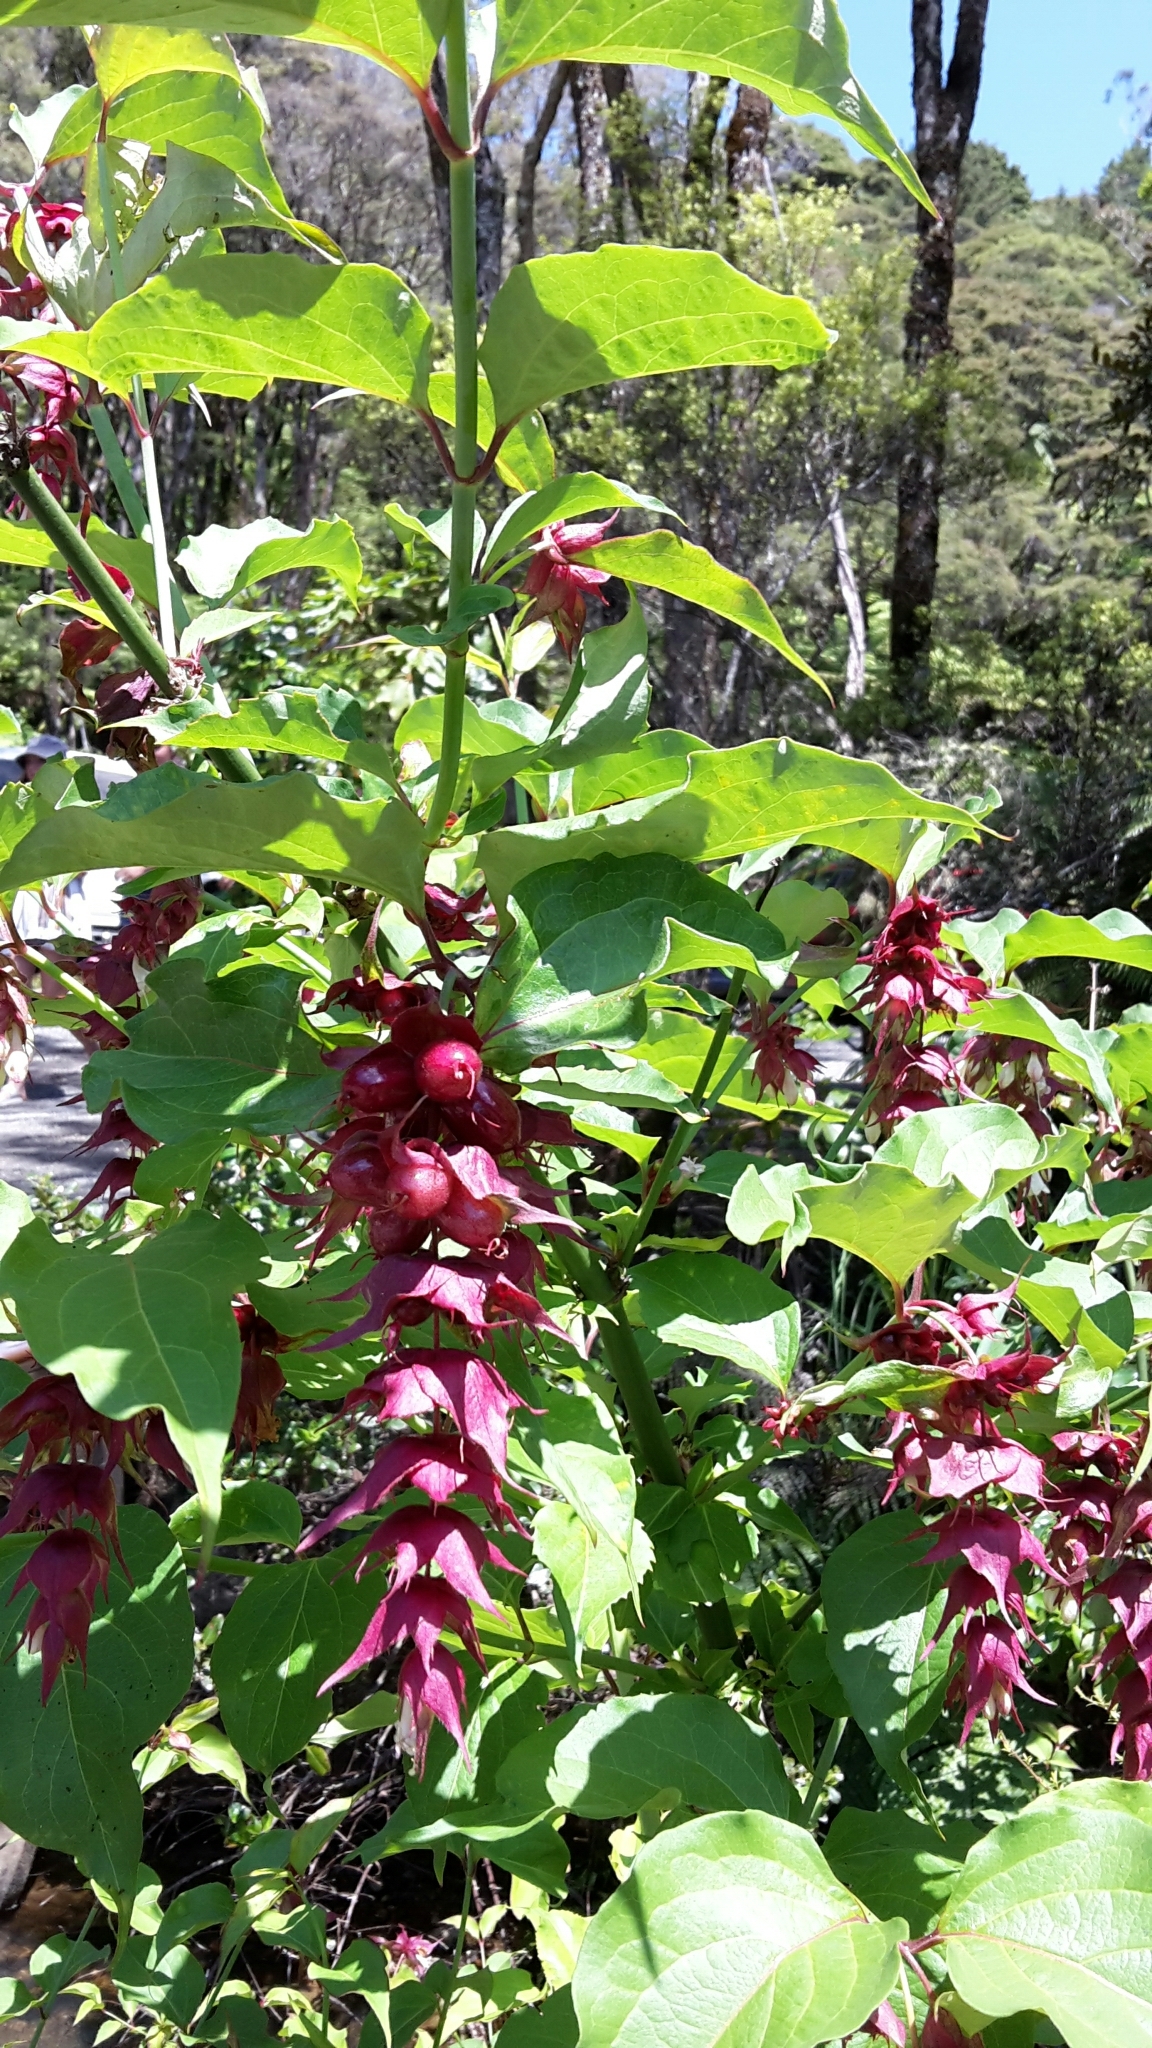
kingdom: Plantae
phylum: Tracheophyta
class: Magnoliopsida
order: Dipsacales
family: Caprifoliaceae
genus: Leycesteria
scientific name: Leycesteria formosa
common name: Himalayan honeysuckle
